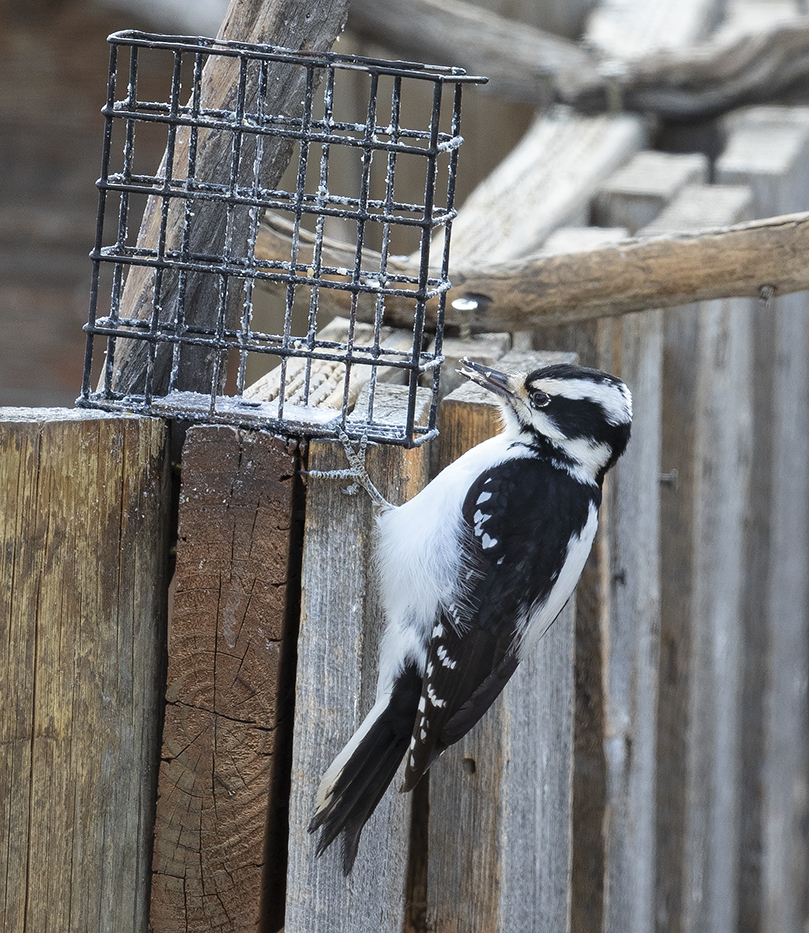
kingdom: Animalia
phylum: Chordata
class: Aves
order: Piciformes
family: Picidae
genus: Leuconotopicus
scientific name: Leuconotopicus villosus
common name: Hairy woodpecker
